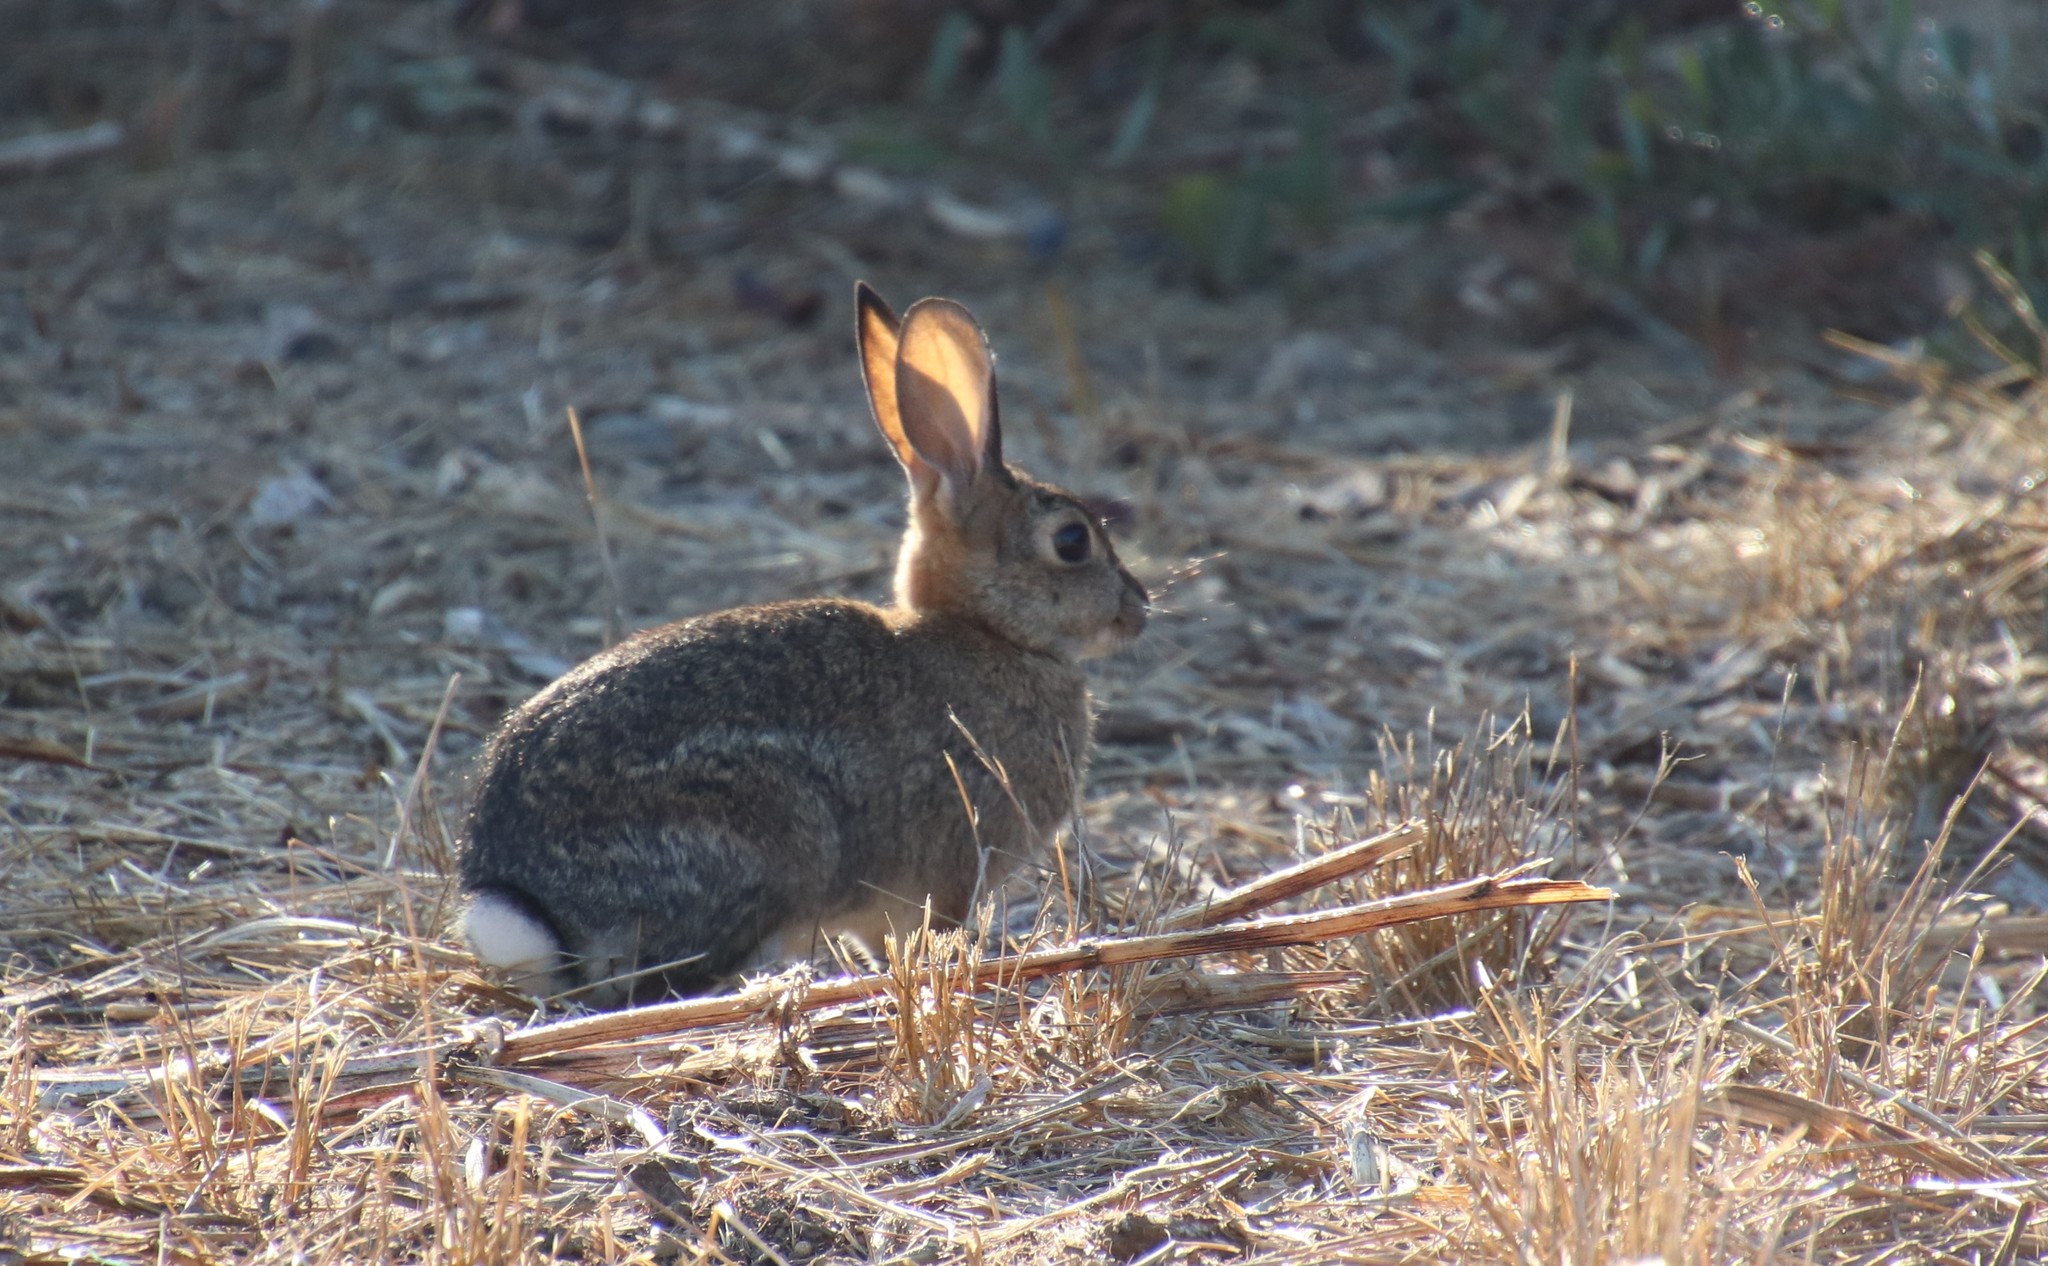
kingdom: Animalia
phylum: Chordata
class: Mammalia
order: Lagomorpha
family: Leporidae
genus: Sylvilagus
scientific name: Sylvilagus audubonii
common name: Desert cottontail
